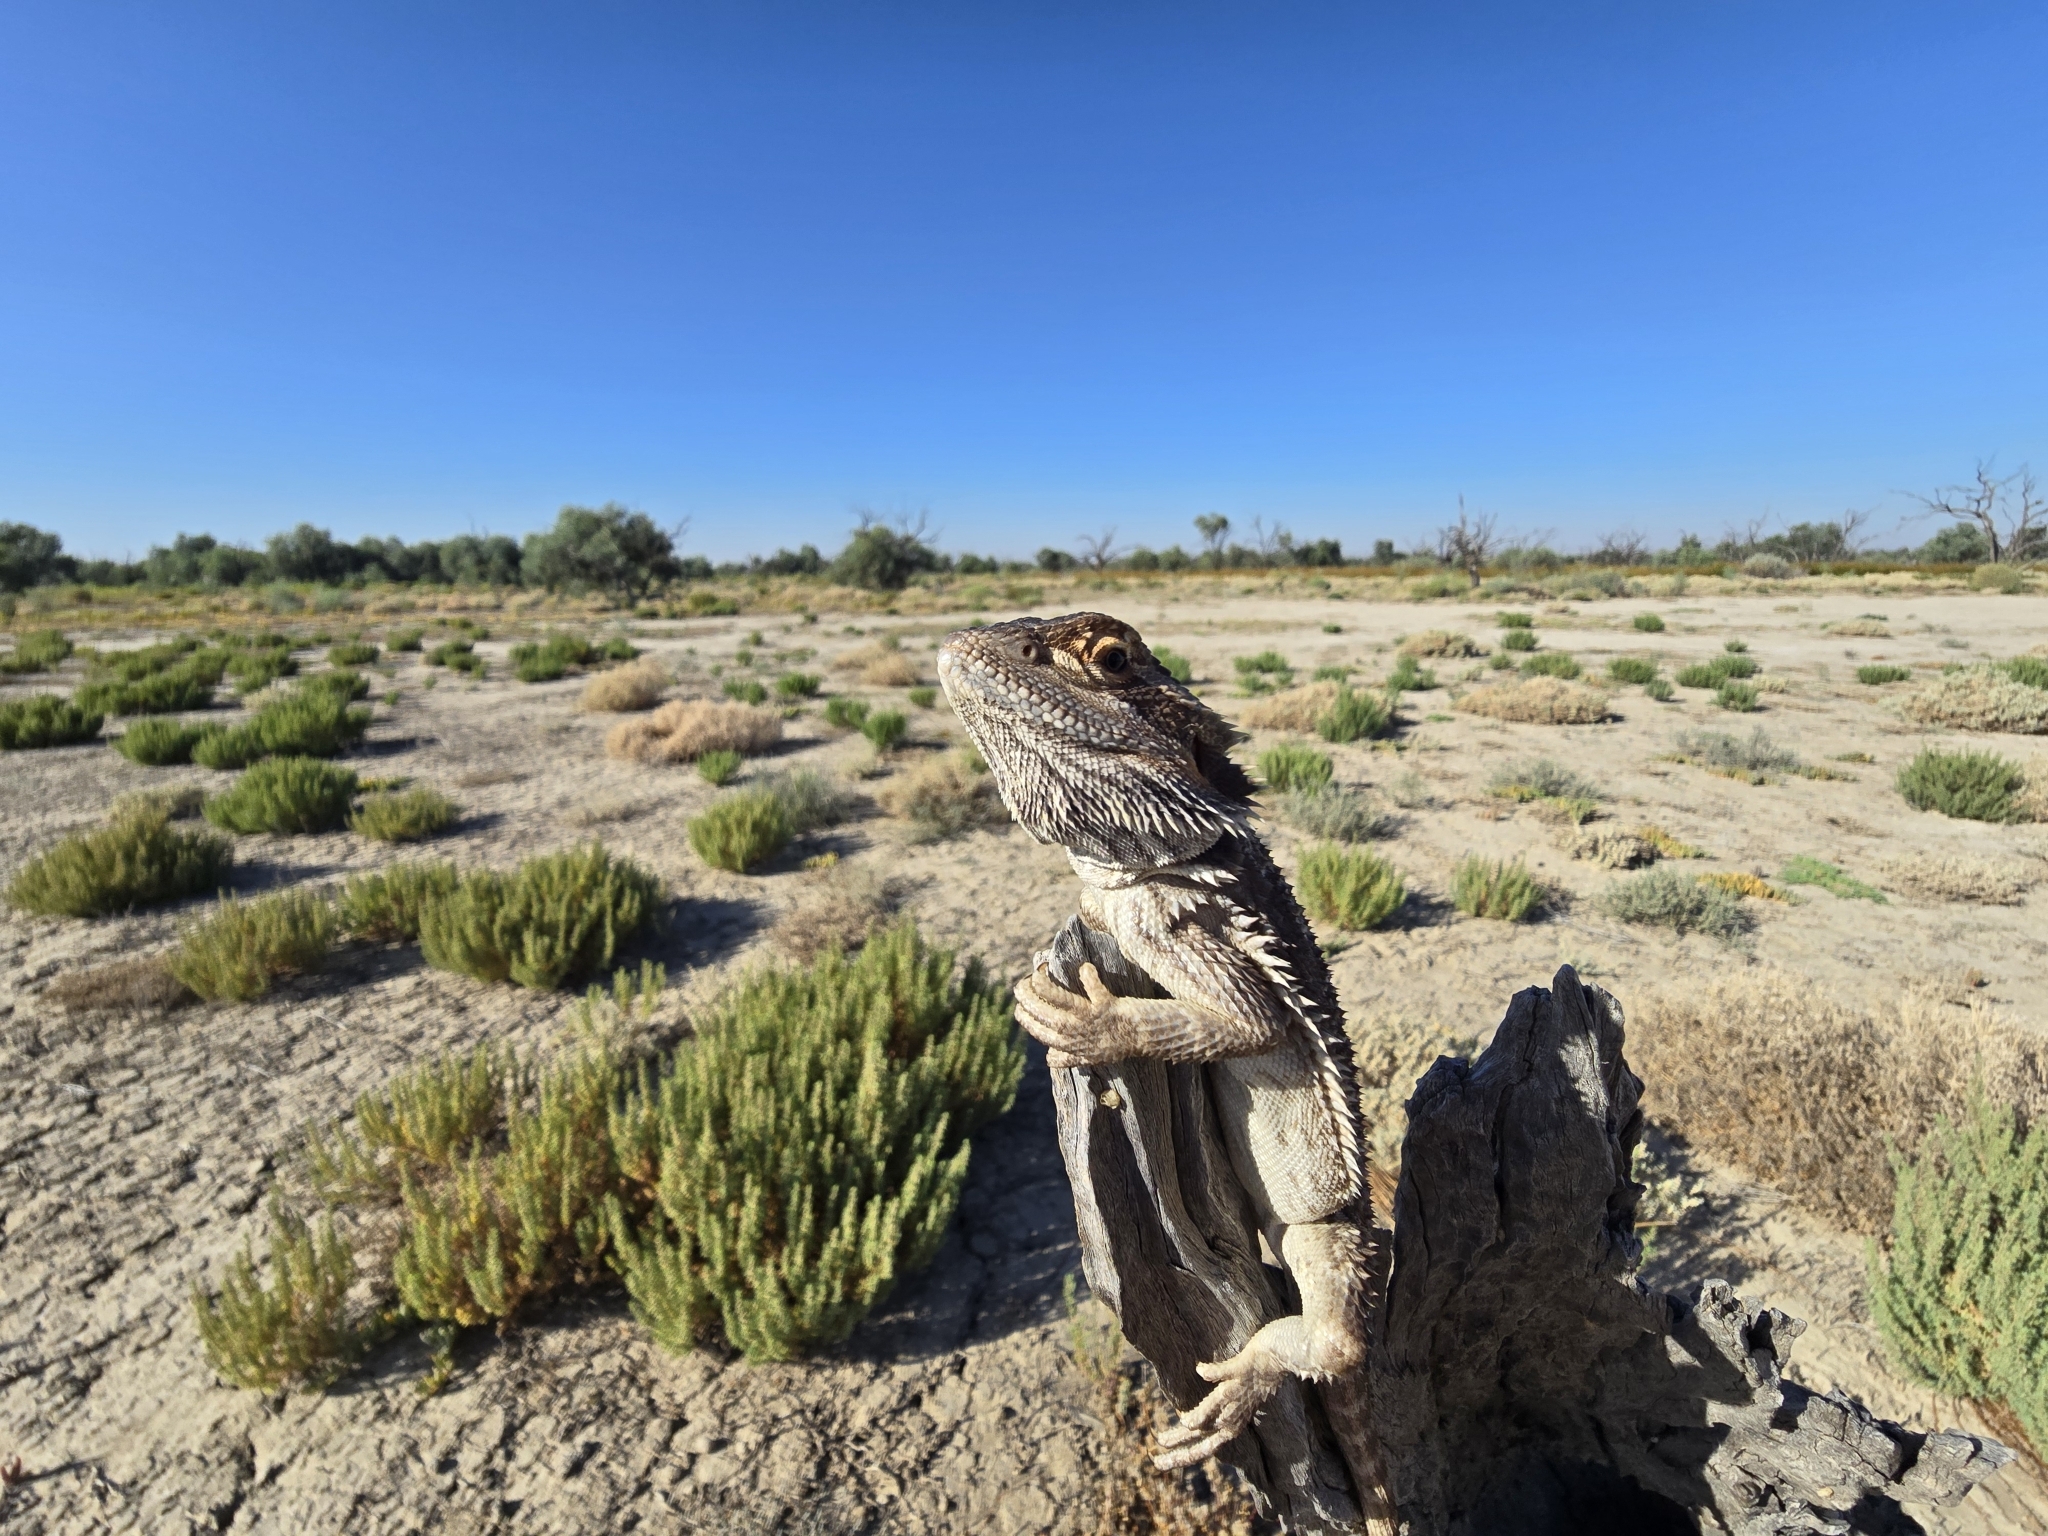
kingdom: Animalia
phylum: Chordata
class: Squamata
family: Agamidae
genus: Pogona
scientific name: Pogona vitticeps
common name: Central bearded dragon
